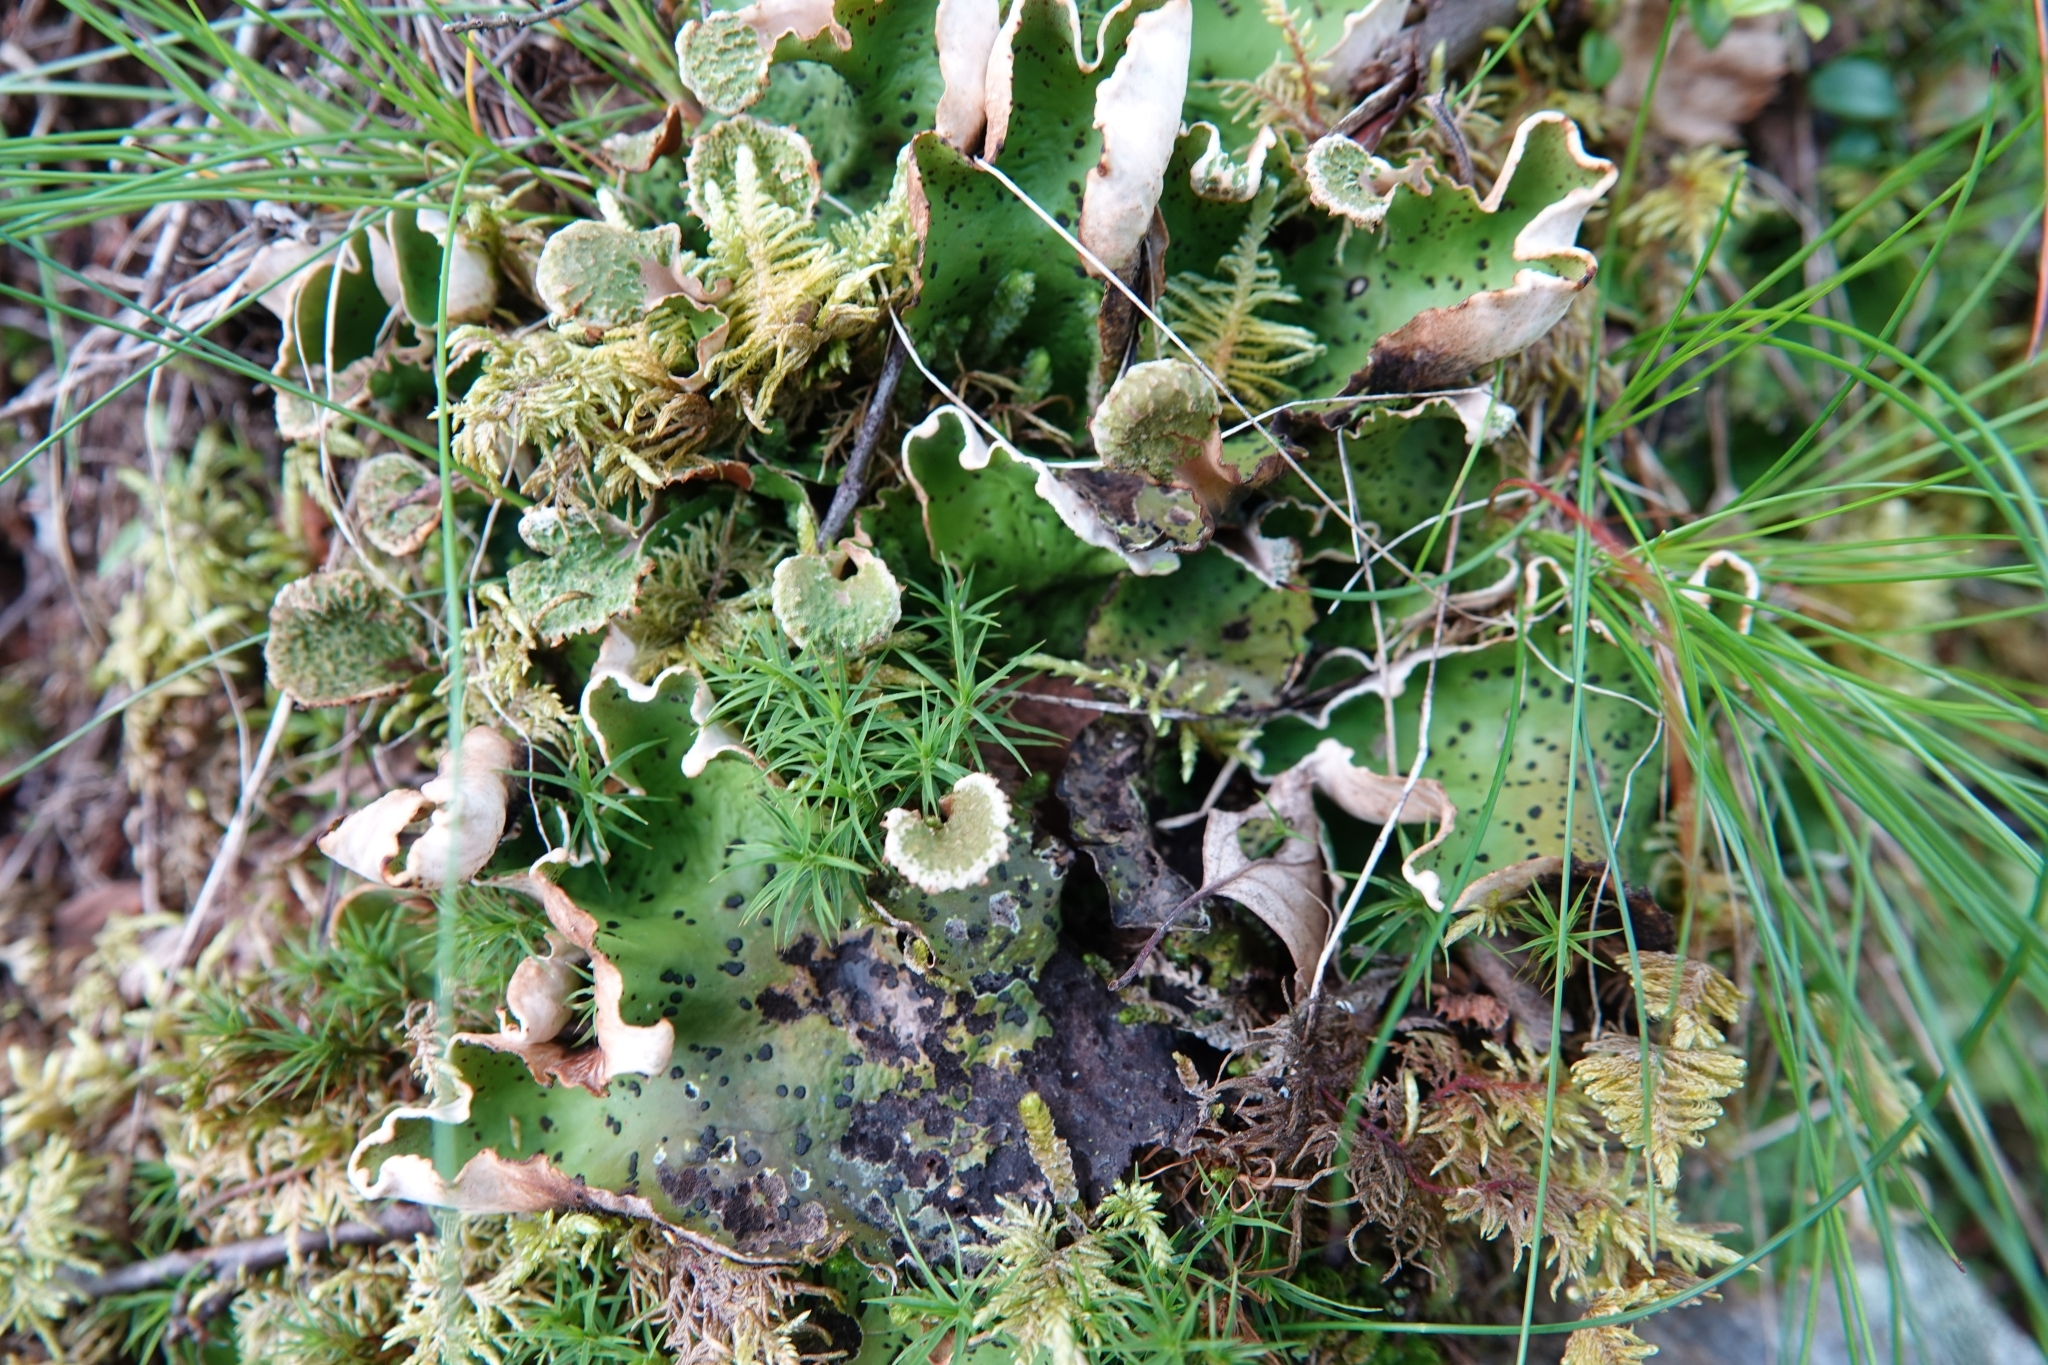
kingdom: Fungi
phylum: Ascomycota
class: Lecanoromycetes
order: Peltigerales
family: Peltigeraceae
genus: Peltigera
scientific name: Peltigera aphthosa
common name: Common freckle pelt lichen
